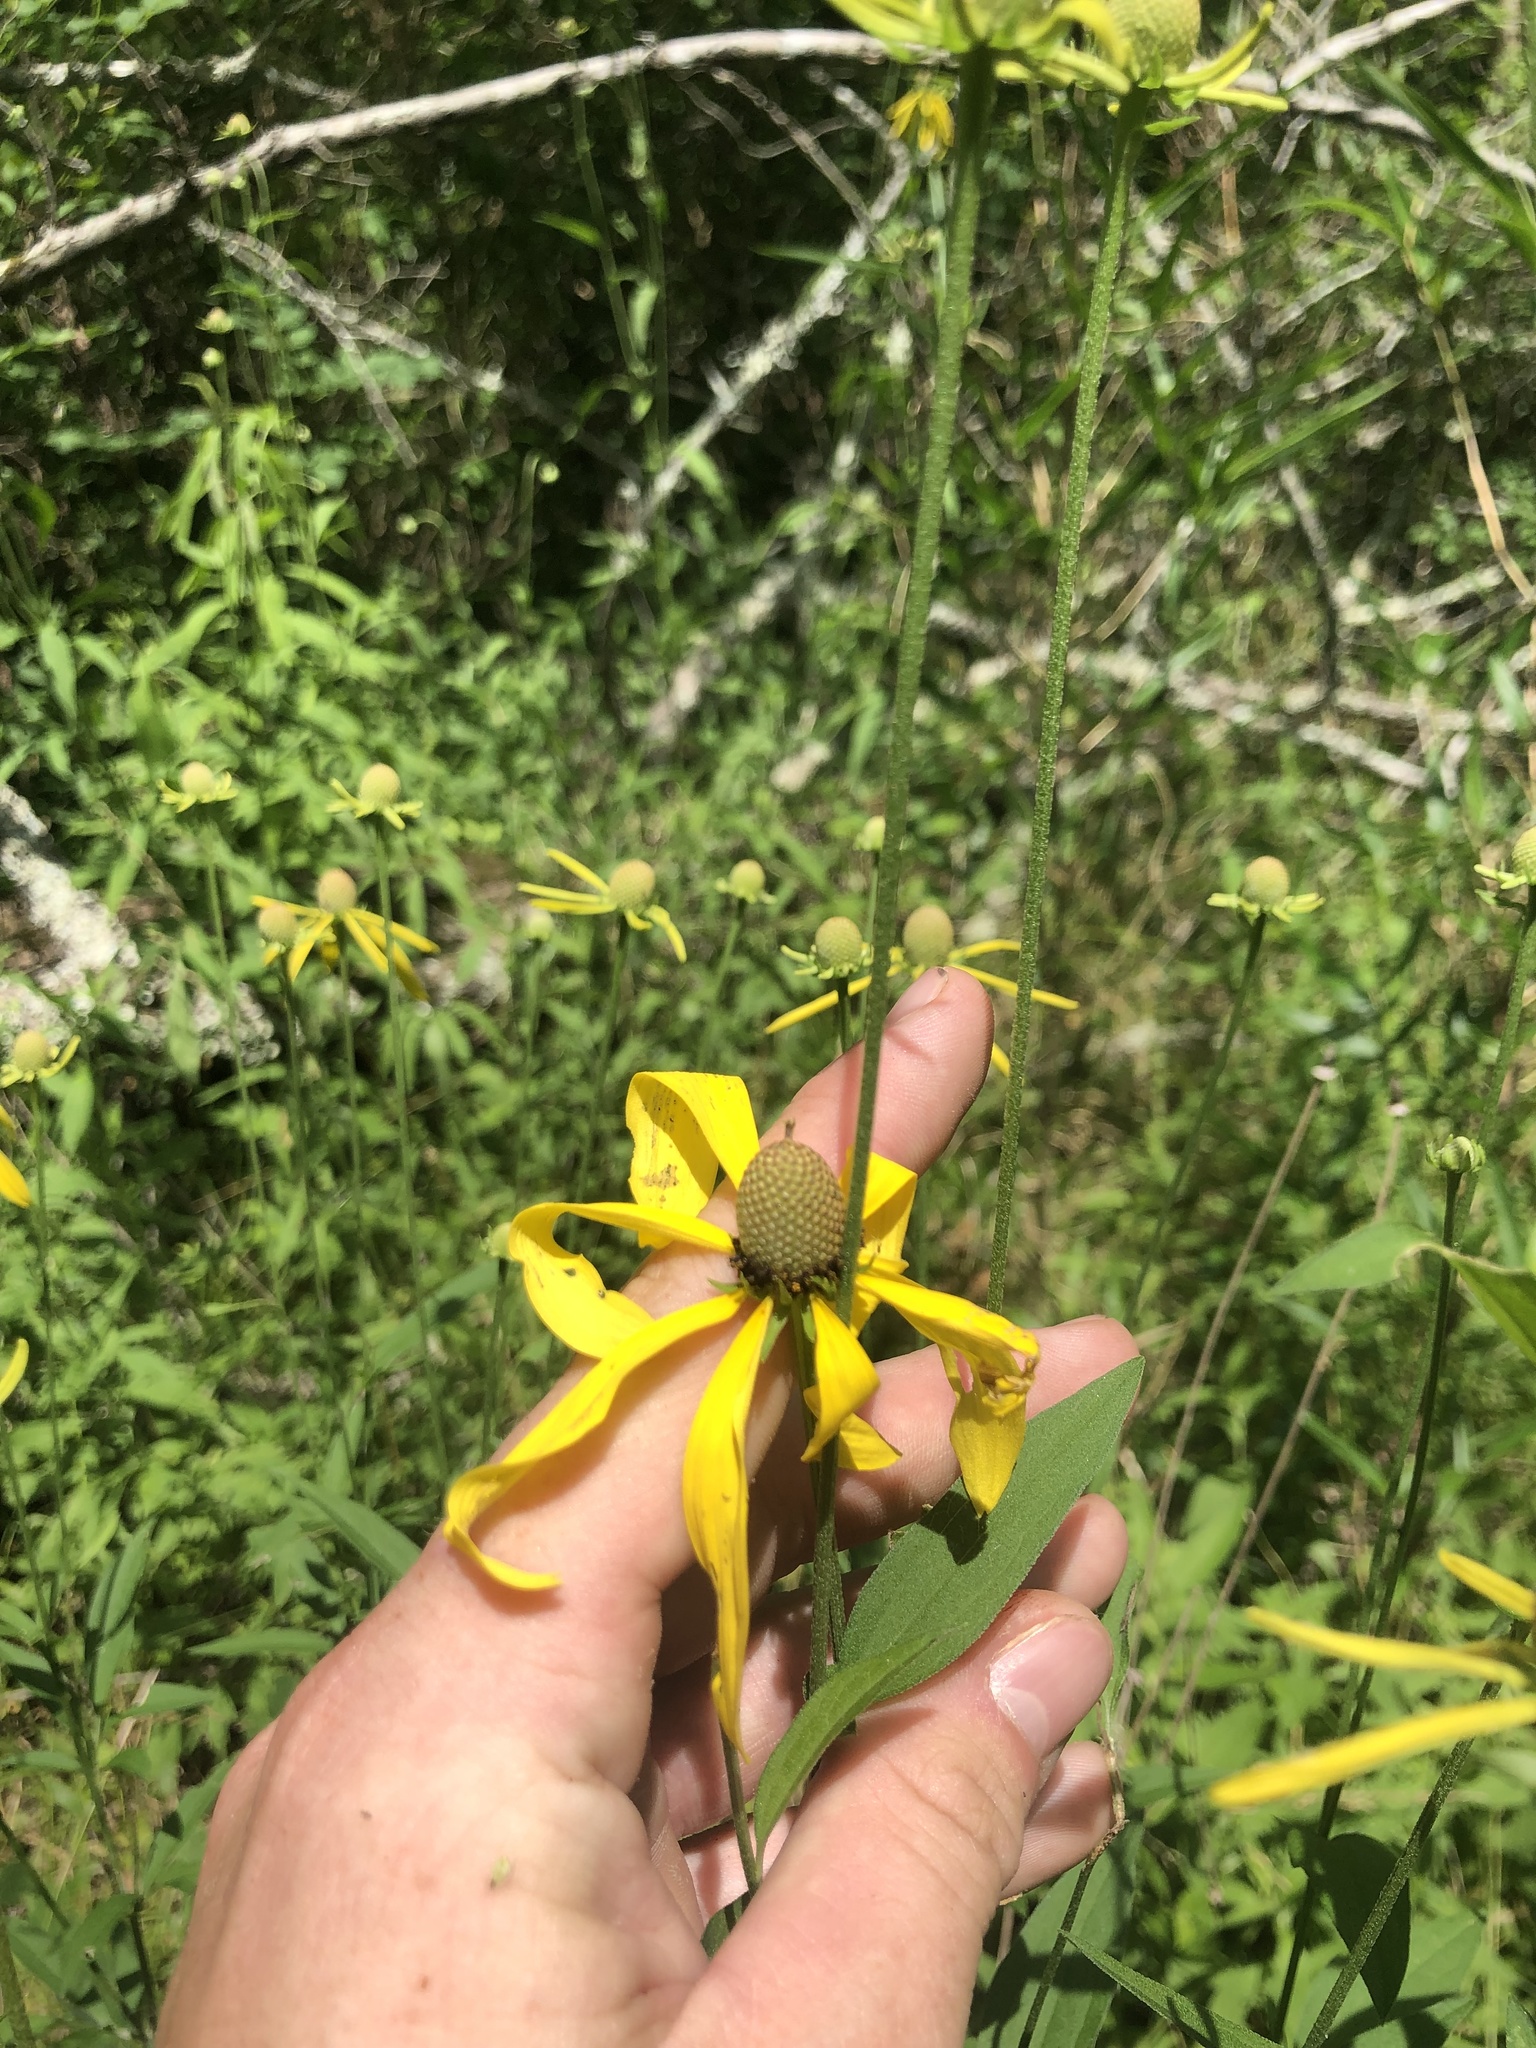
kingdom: Plantae
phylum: Tracheophyta
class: Magnoliopsida
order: Asterales
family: Asteraceae
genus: Ratibida
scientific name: Ratibida pinnata
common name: Drooping prairie-coneflower
